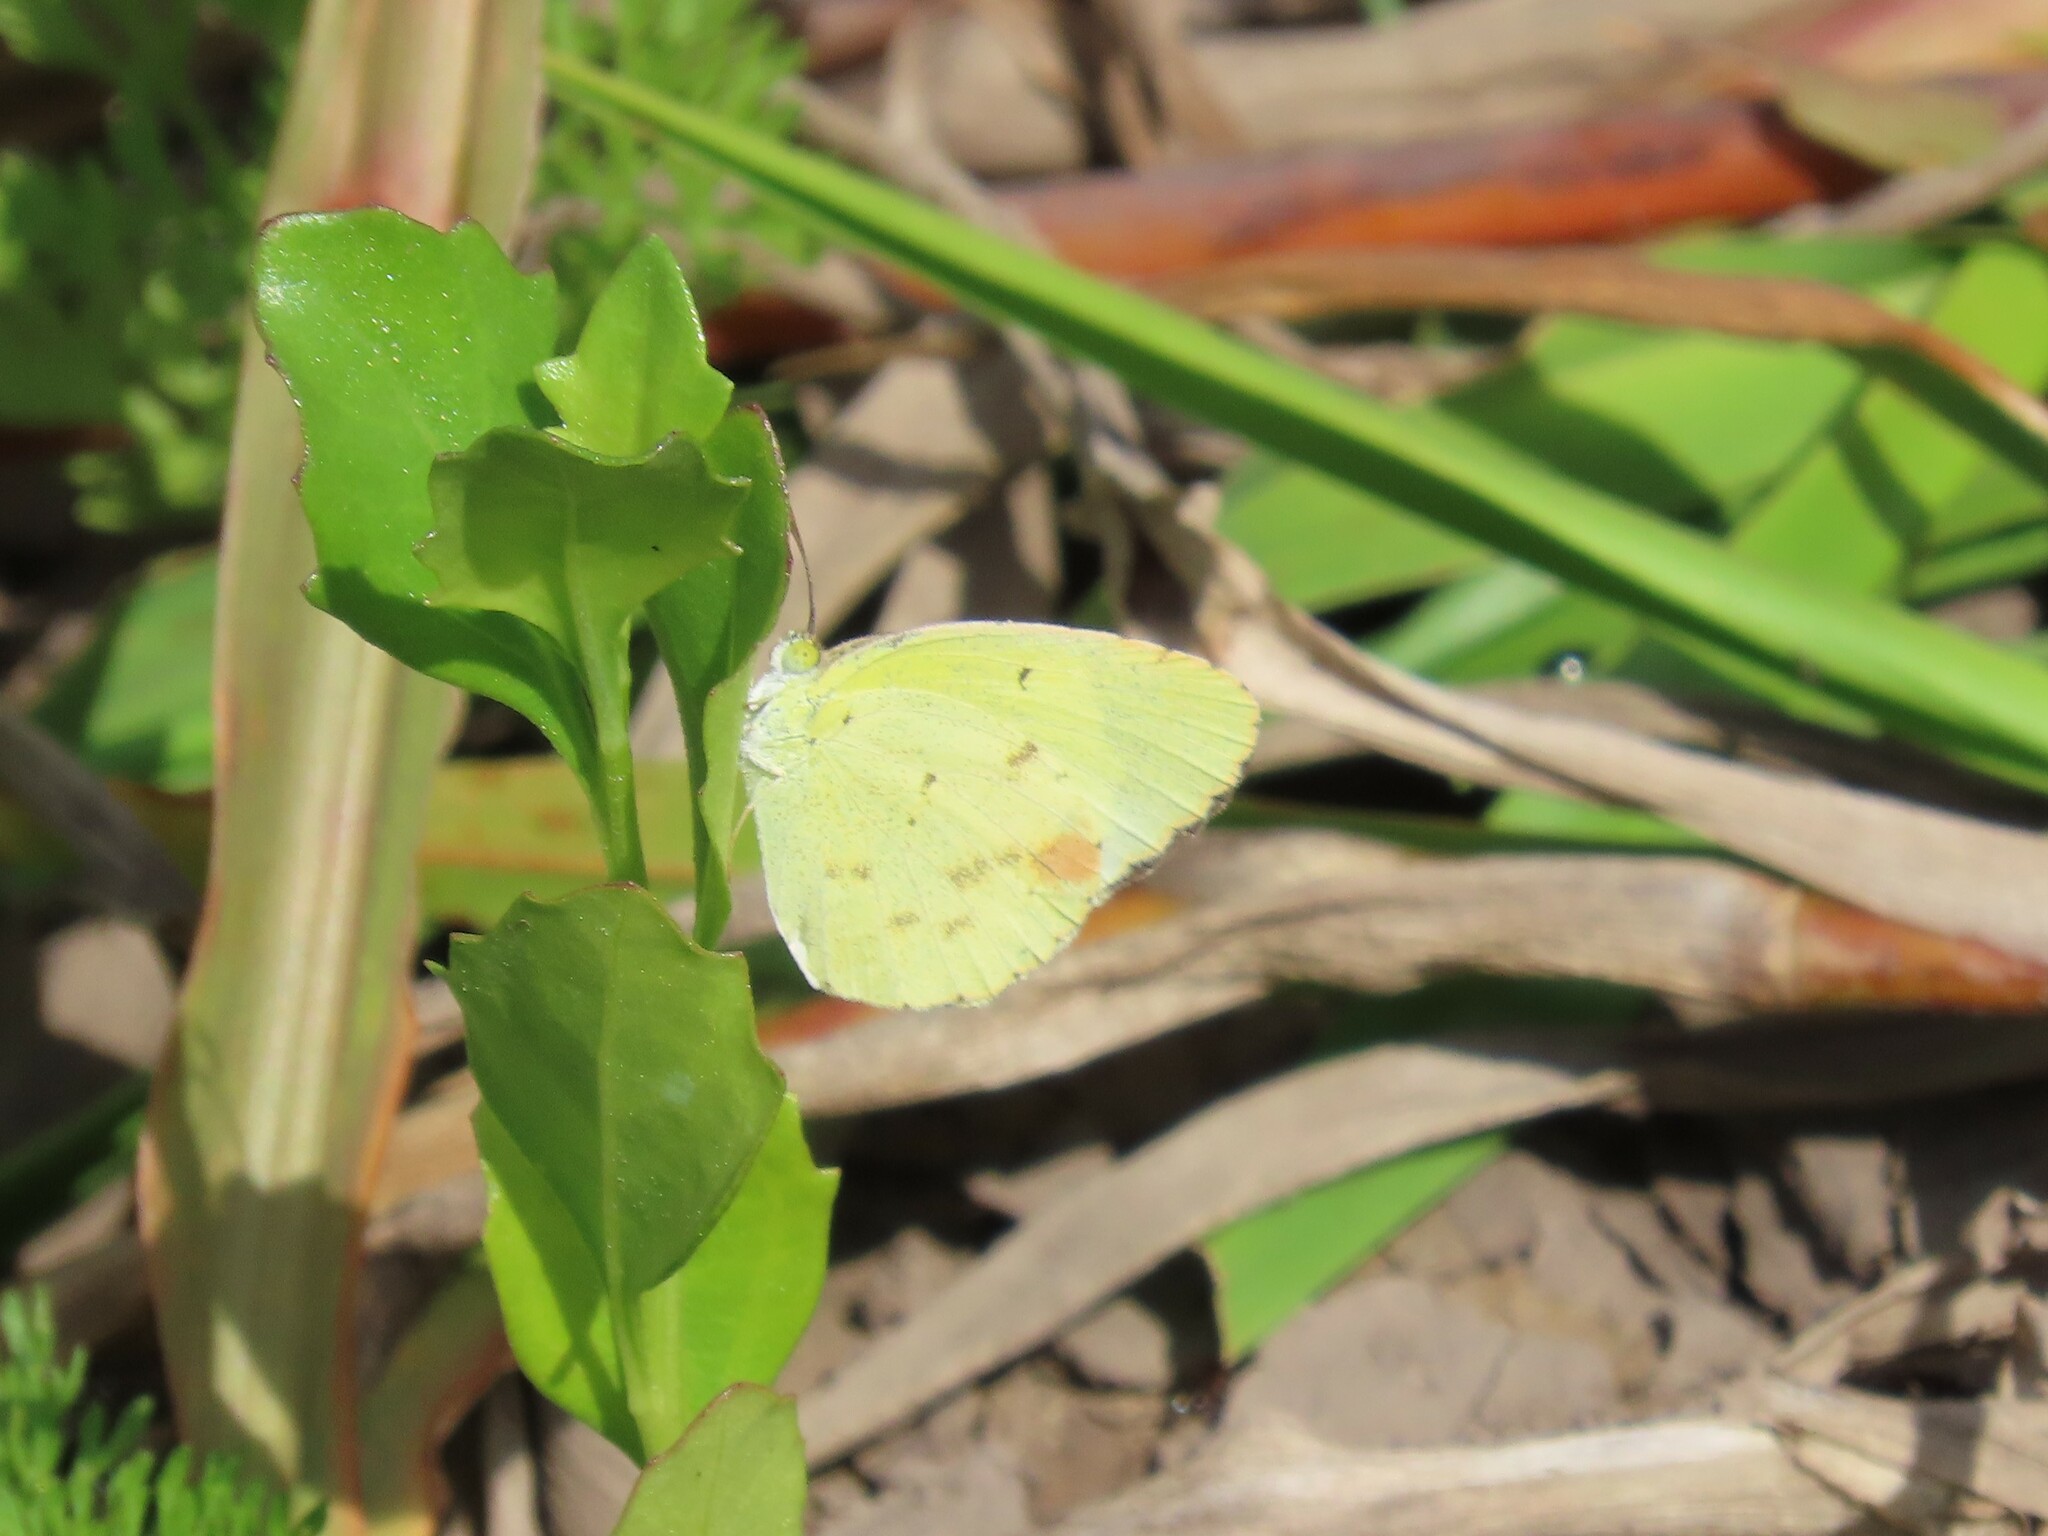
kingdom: Animalia
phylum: Arthropoda
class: Insecta
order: Lepidoptera
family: Pieridae
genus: Pyrisitia
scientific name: Pyrisitia lisa
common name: Little yellow
